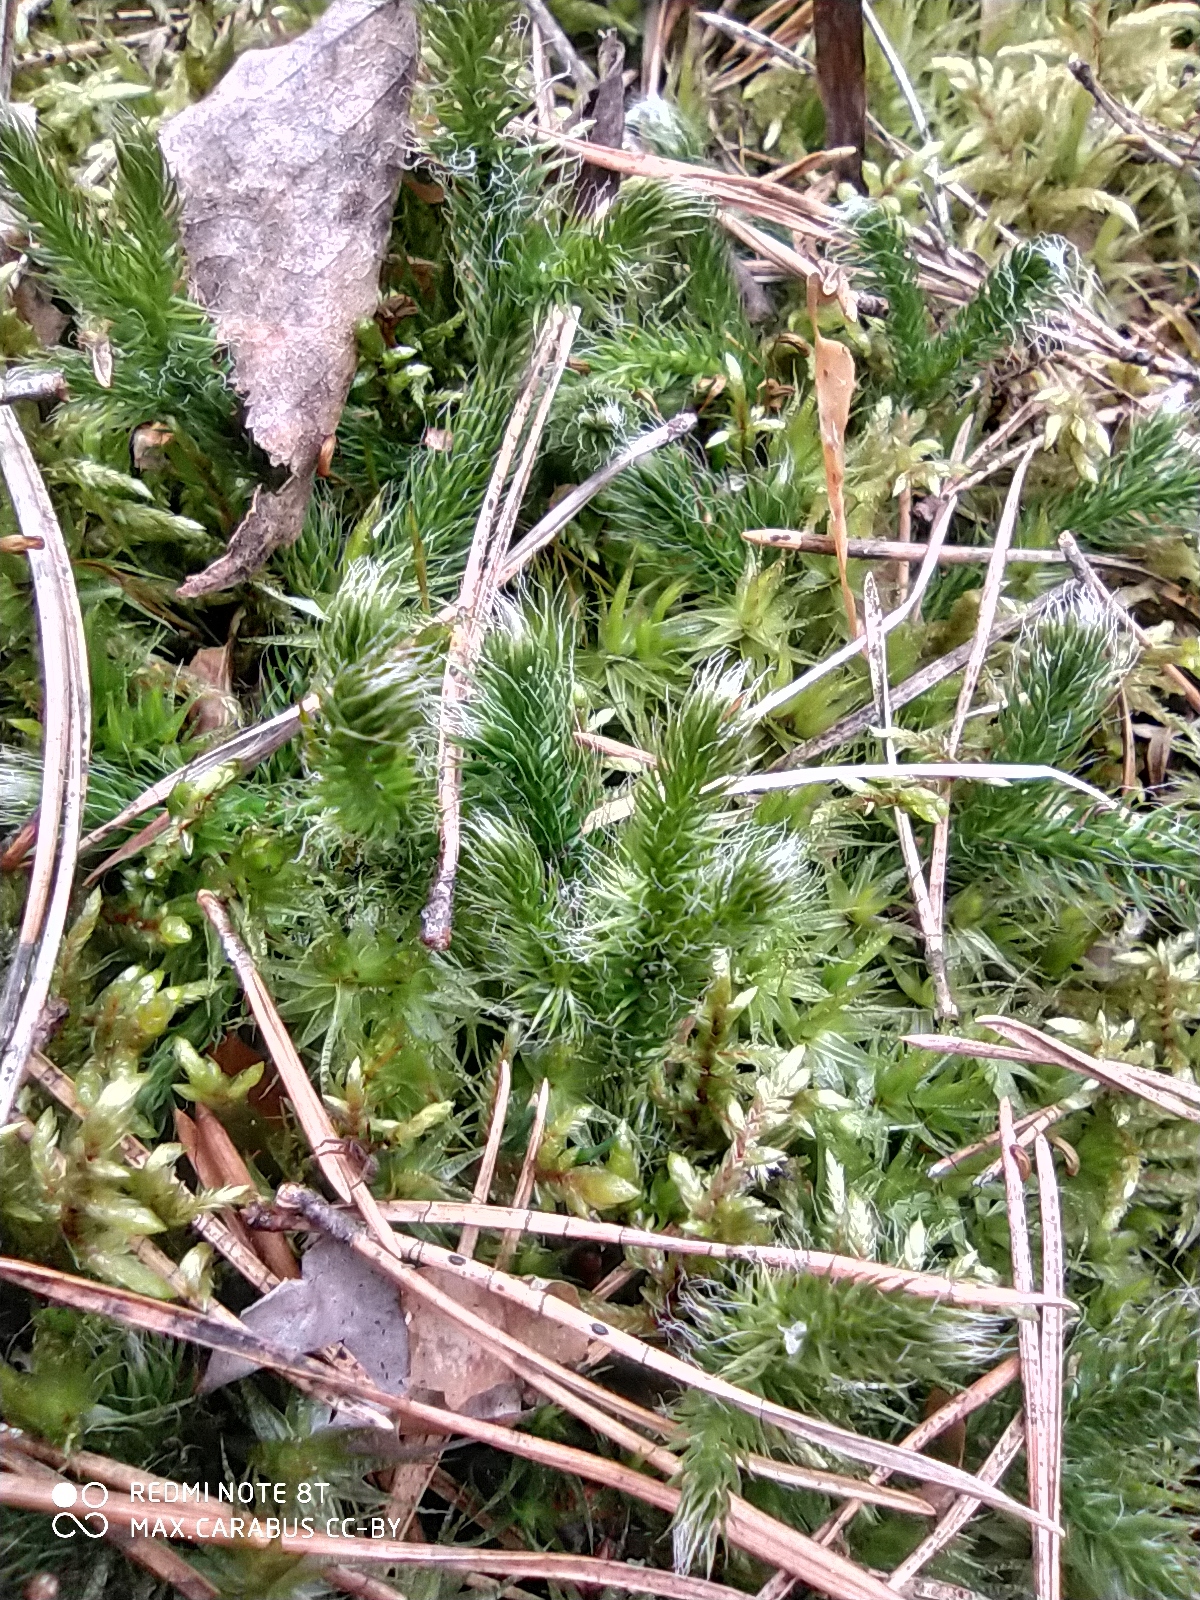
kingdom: Plantae
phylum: Tracheophyta
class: Lycopodiopsida
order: Lycopodiales
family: Lycopodiaceae
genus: Lycopodium
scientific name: Lycopodium clavatum
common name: Stag's-horn clubmoss
